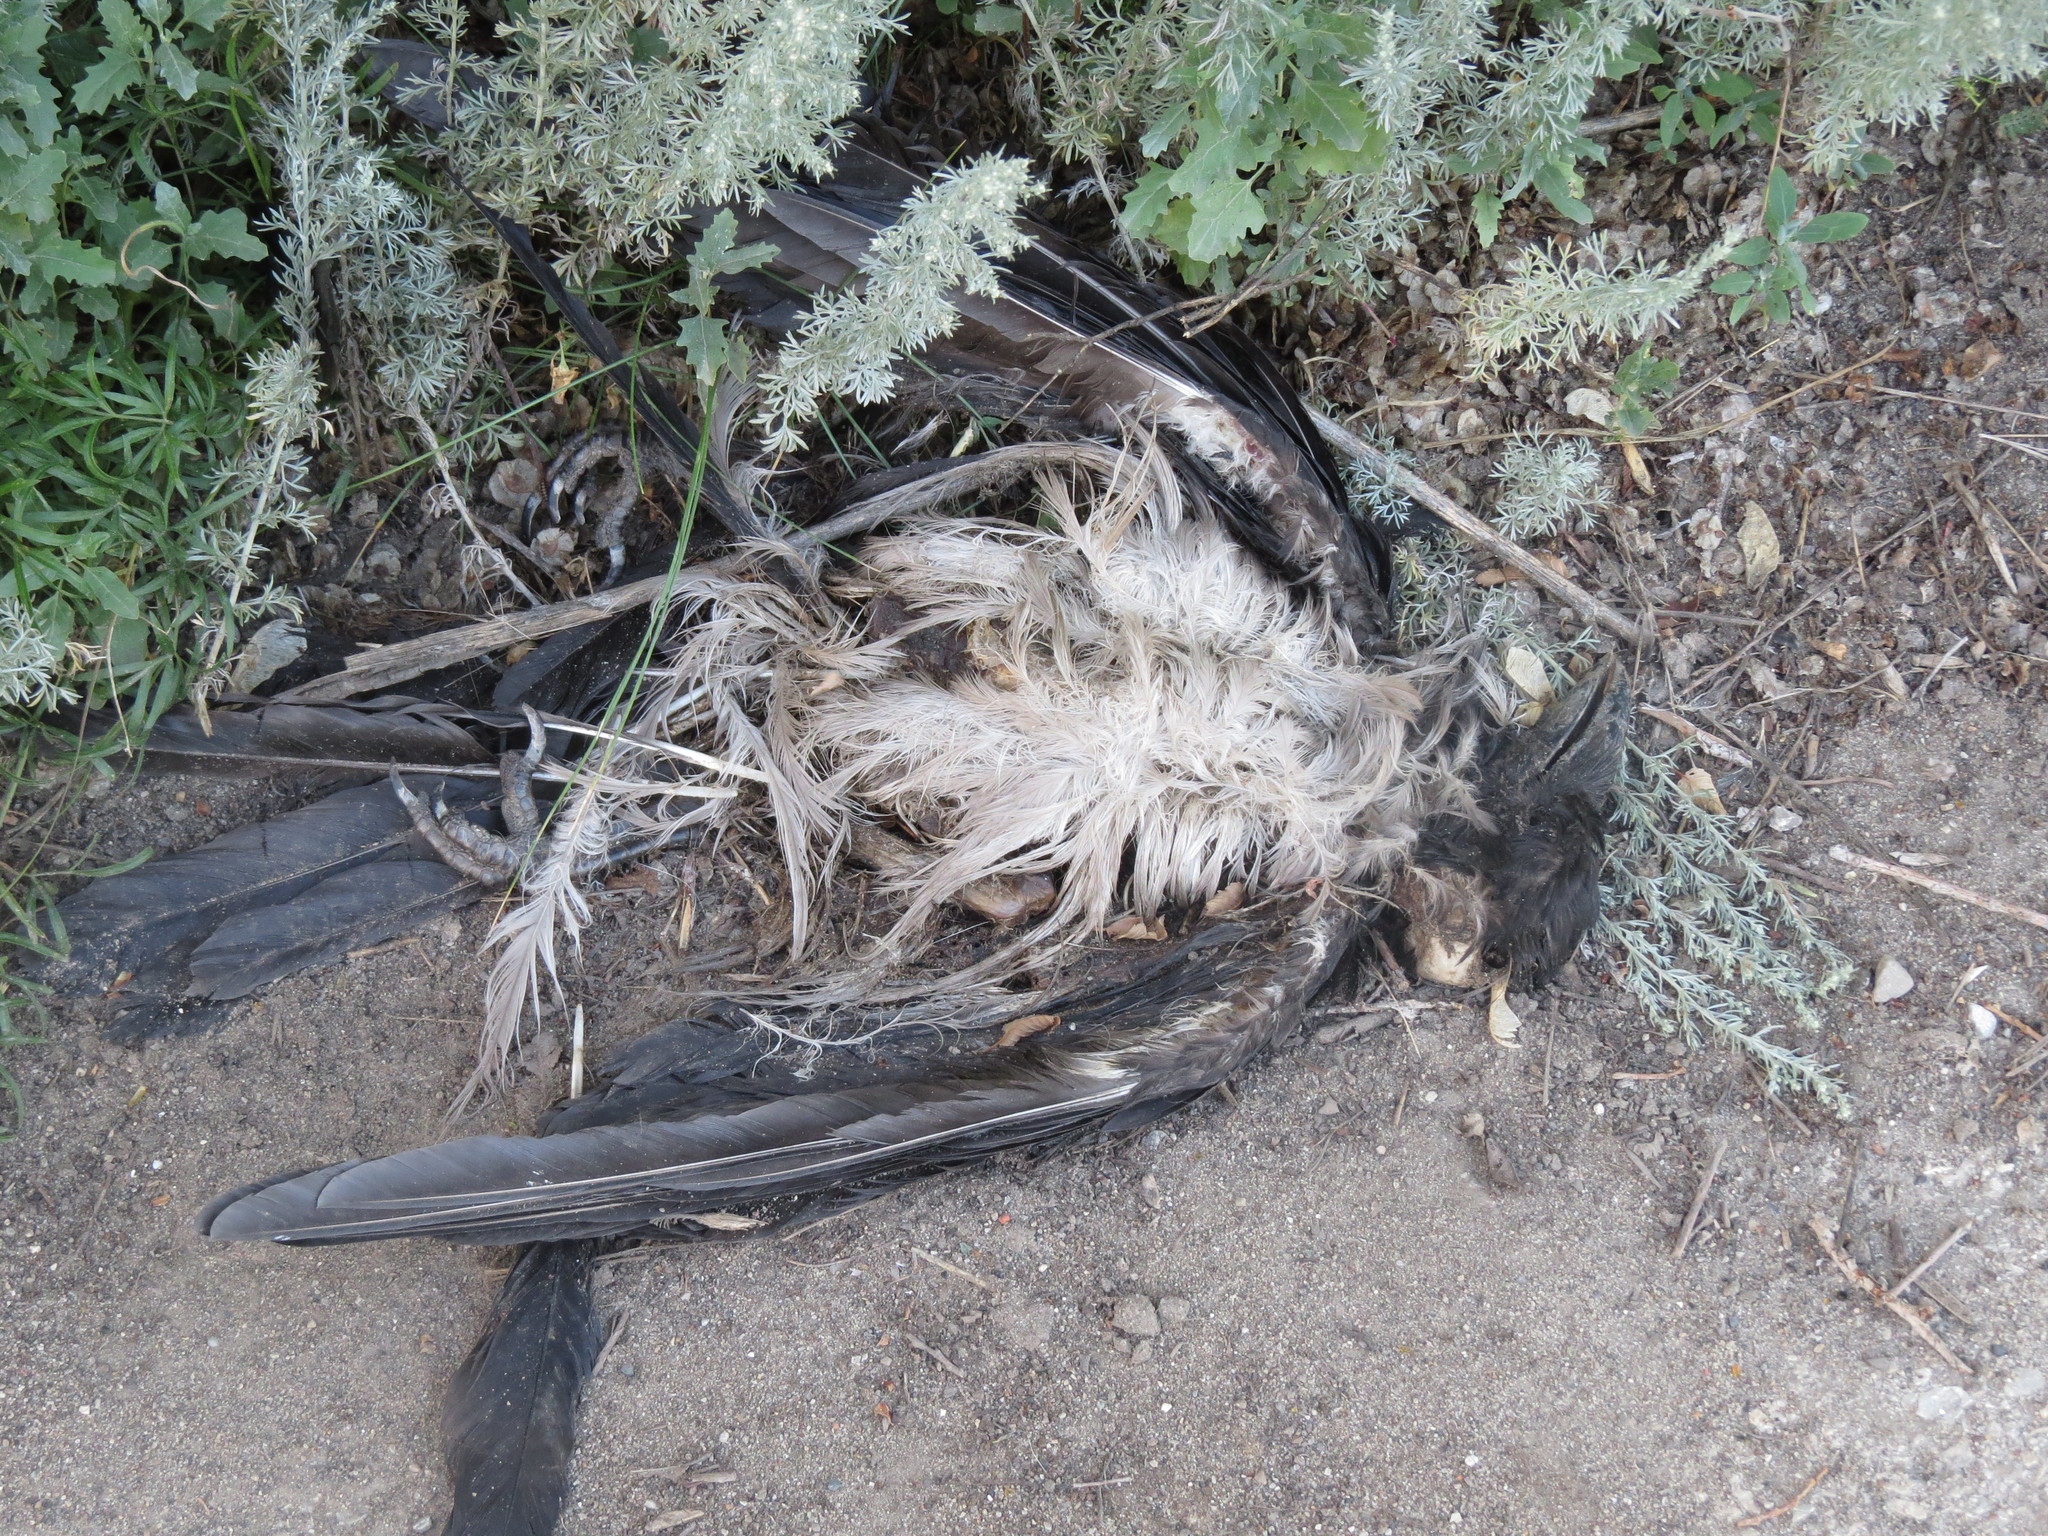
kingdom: Animalia
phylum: Chordata
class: Aves
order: Passeriformes
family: Corvidae
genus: Corvus
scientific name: Corvus cornix
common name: Hooded crow
